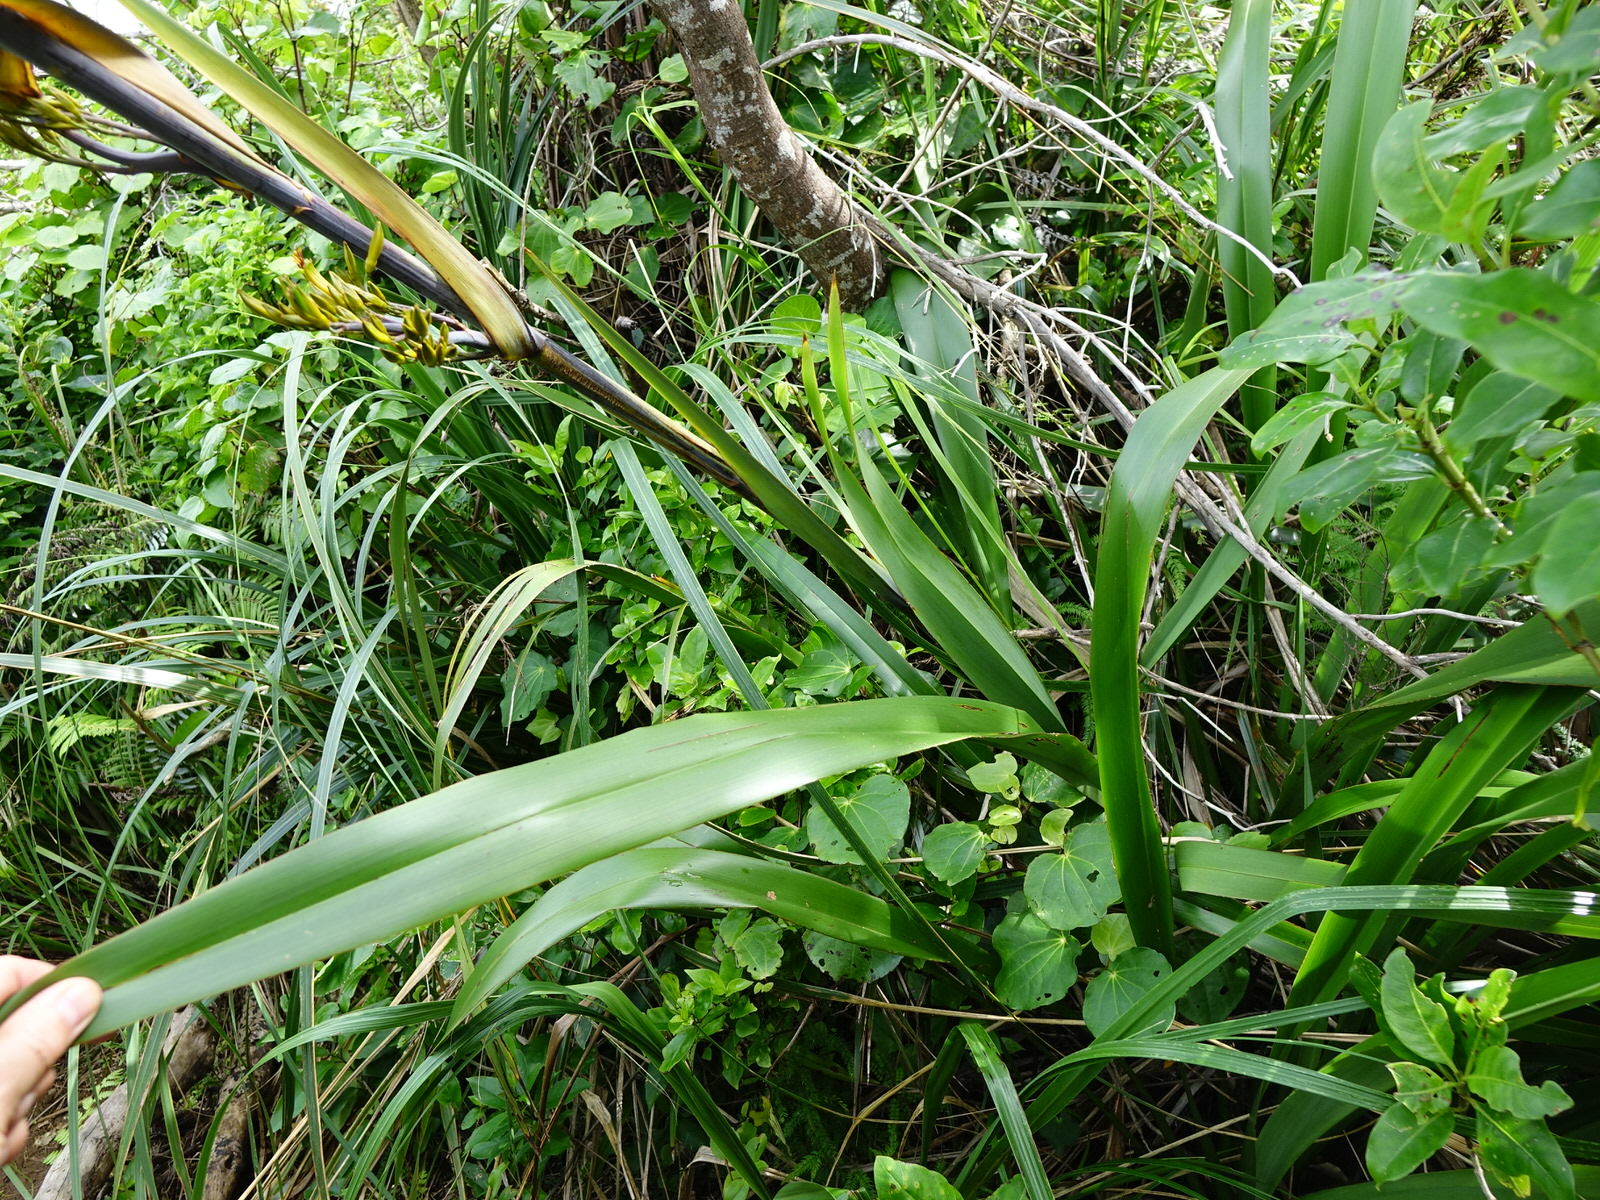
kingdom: Plantae
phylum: Tracheophyta
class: Liliopsida
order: Asparagales
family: Asphodelaceae
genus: Phormium
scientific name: Phormium colensoi
